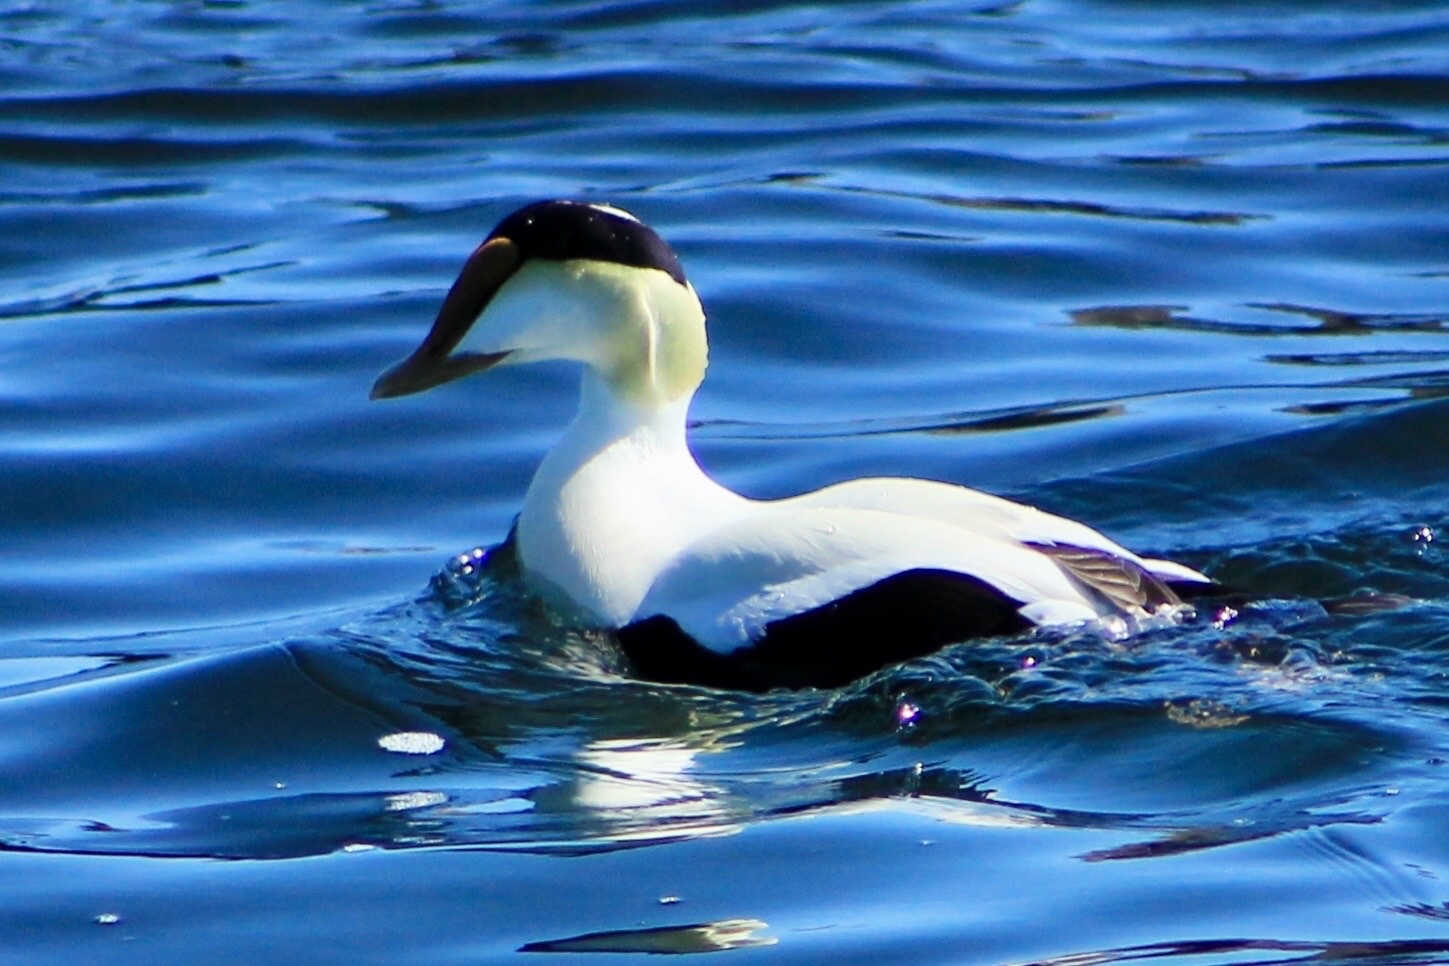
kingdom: Animalia
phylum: Chordata
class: Aves
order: Anseriformes
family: Anatidae
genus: Somateria
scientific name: Somateria mollissima
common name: Common eider
